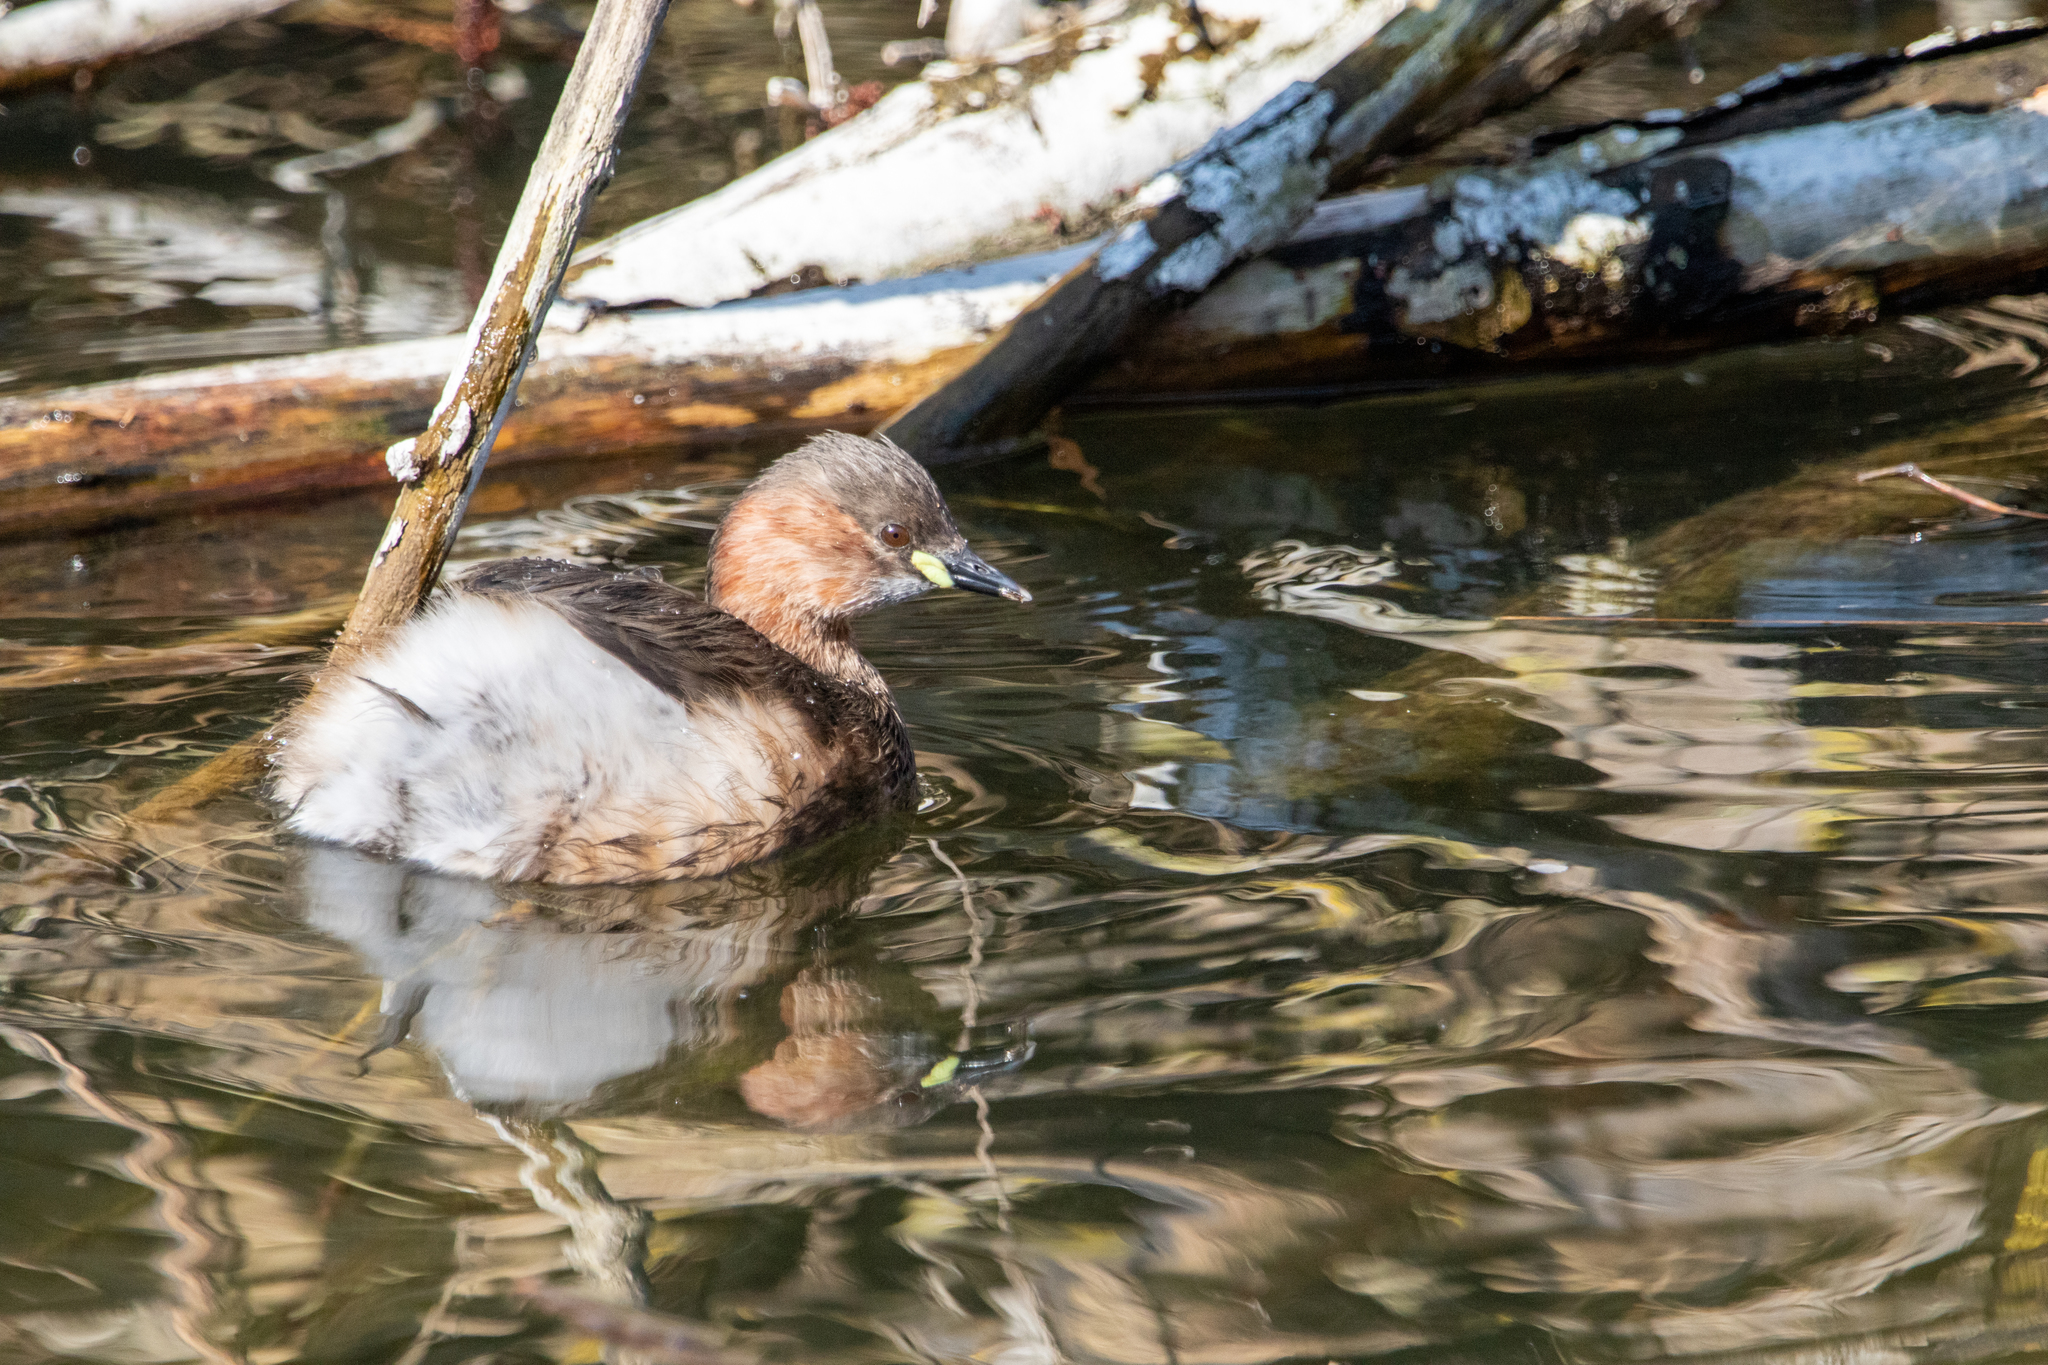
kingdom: Animalia
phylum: Chordata
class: Aves
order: Podicipediformes
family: Podicipedidae
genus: Tachybaptus
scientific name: Tachybaptus ruficollis
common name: Little grebe
